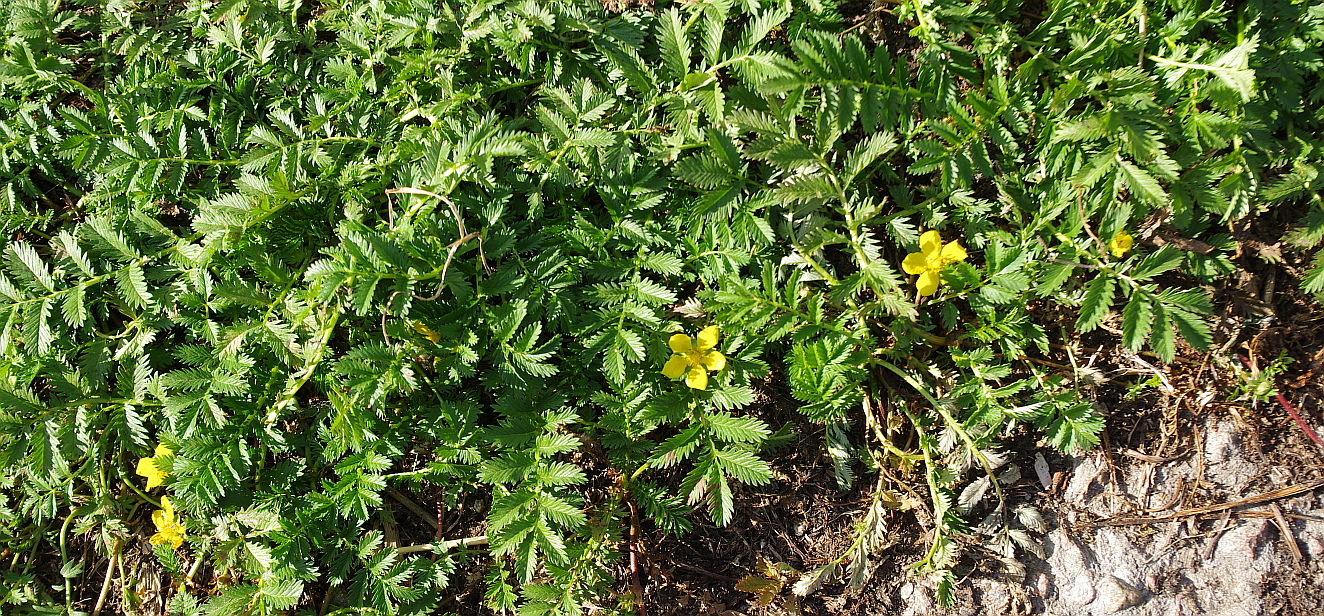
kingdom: Plantae
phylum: Tracheophyta
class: Magnoliopsida
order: Rosales
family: Rosaceae
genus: Argentina
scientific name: Argentina anserina
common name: Common silverweed
